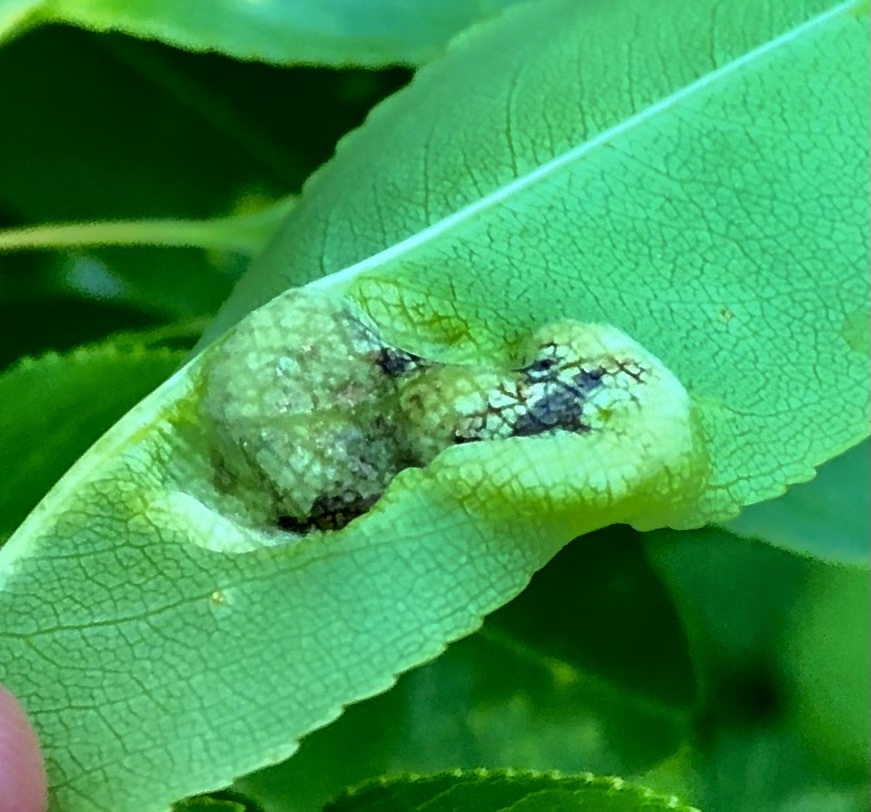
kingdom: Fungi
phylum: Ascomycota
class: Taphrinomycetes
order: Taphrinales
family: Taphrinaceae
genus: Taphrina
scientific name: Taphrina farlowii
